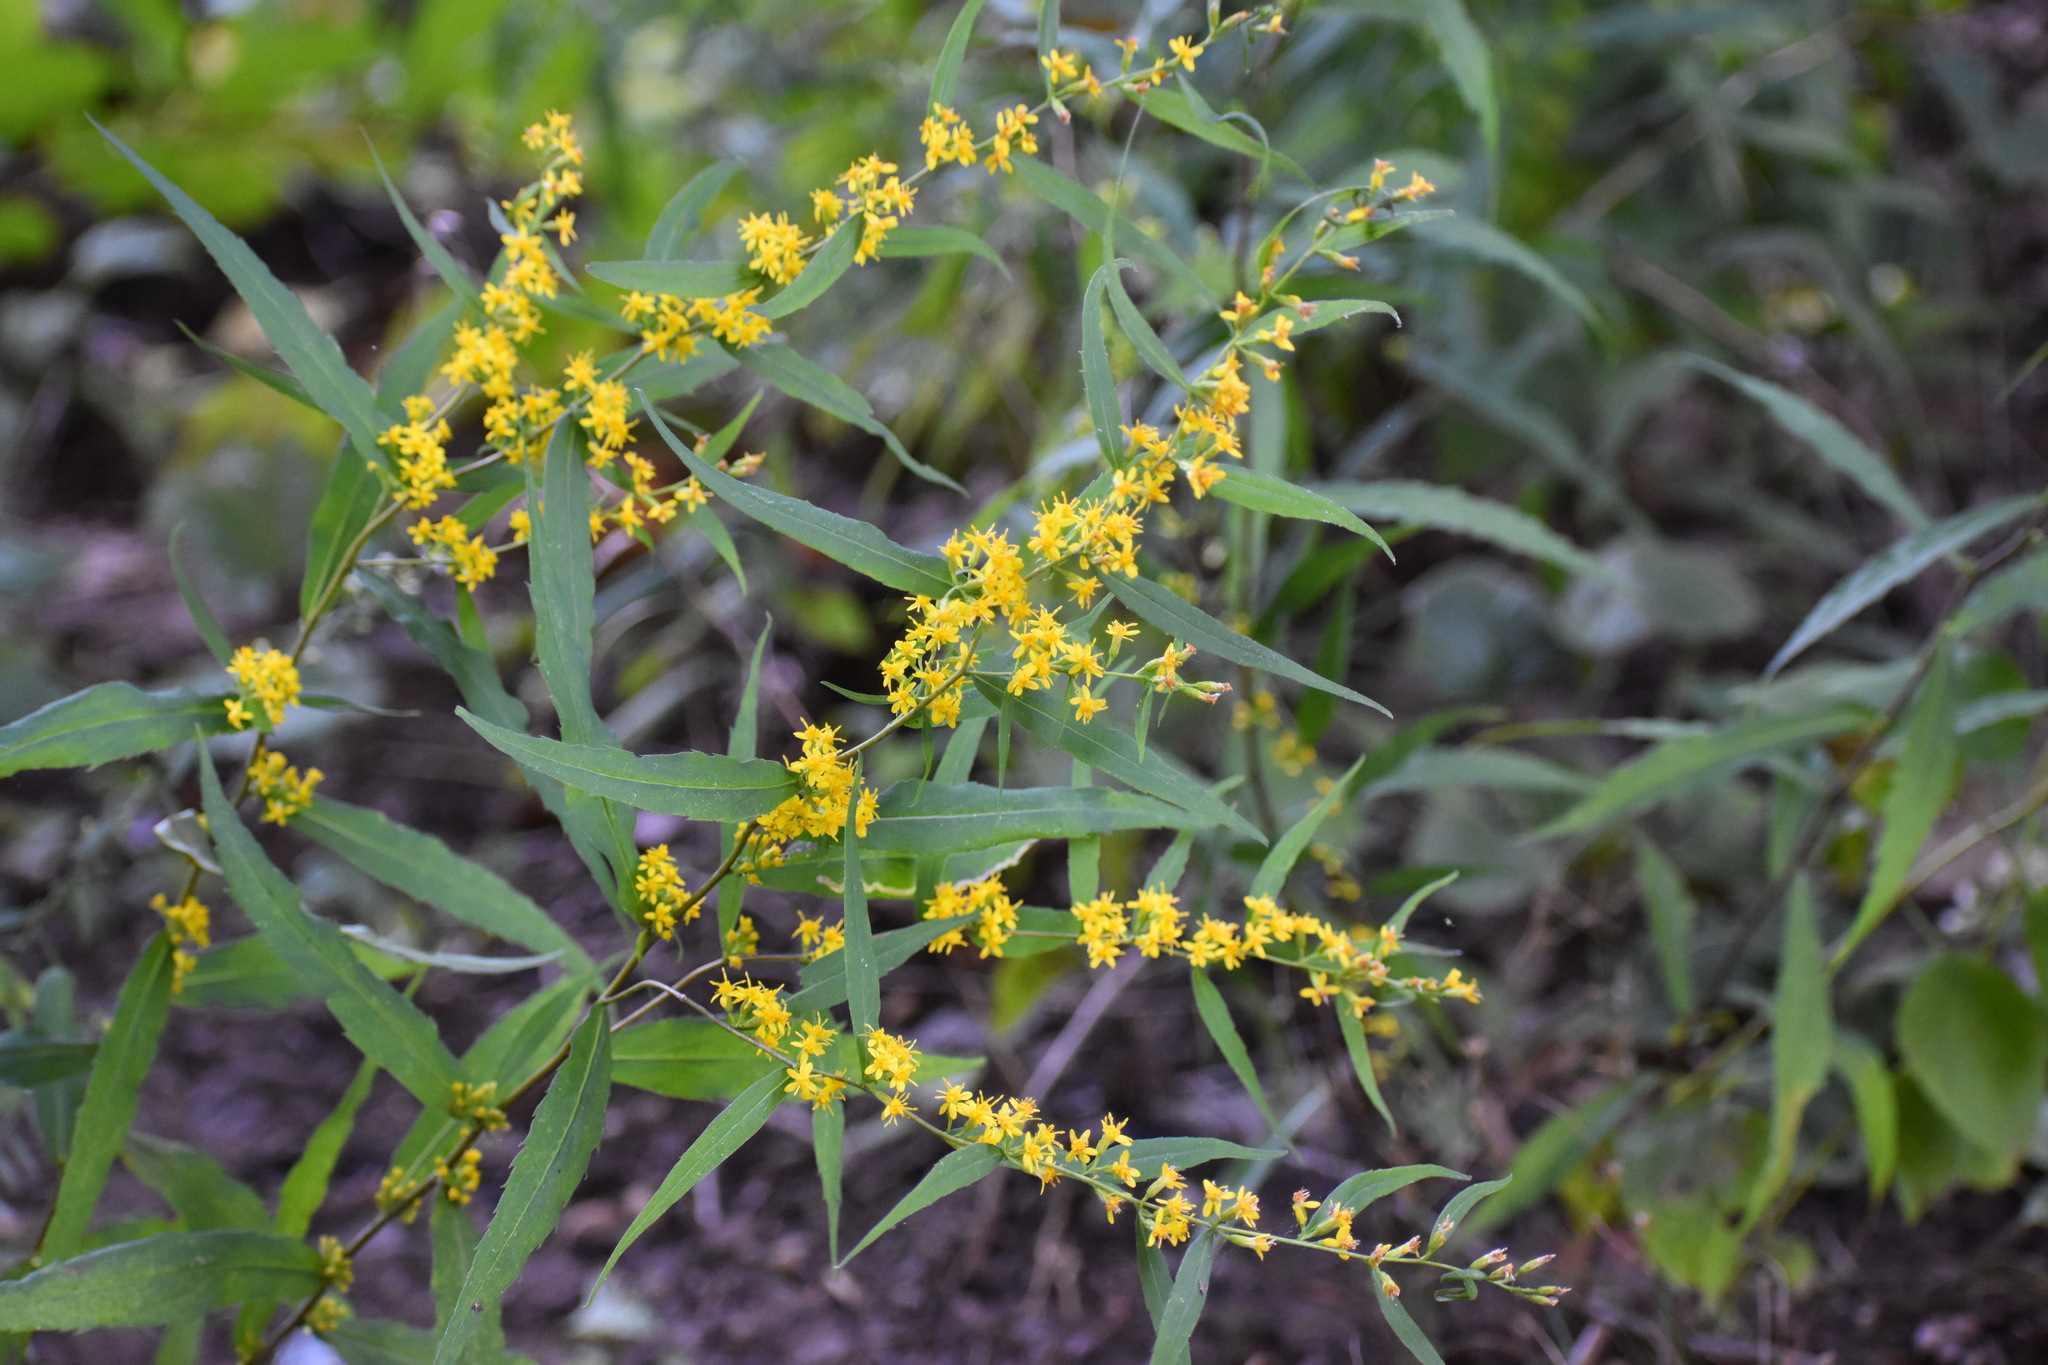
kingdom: Plantae
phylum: Tracheophyta
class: Magnoliopsida
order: Asterales
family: Asteraceae
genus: Solidago
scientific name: Solidago caesia
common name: Woodland goldenrod
